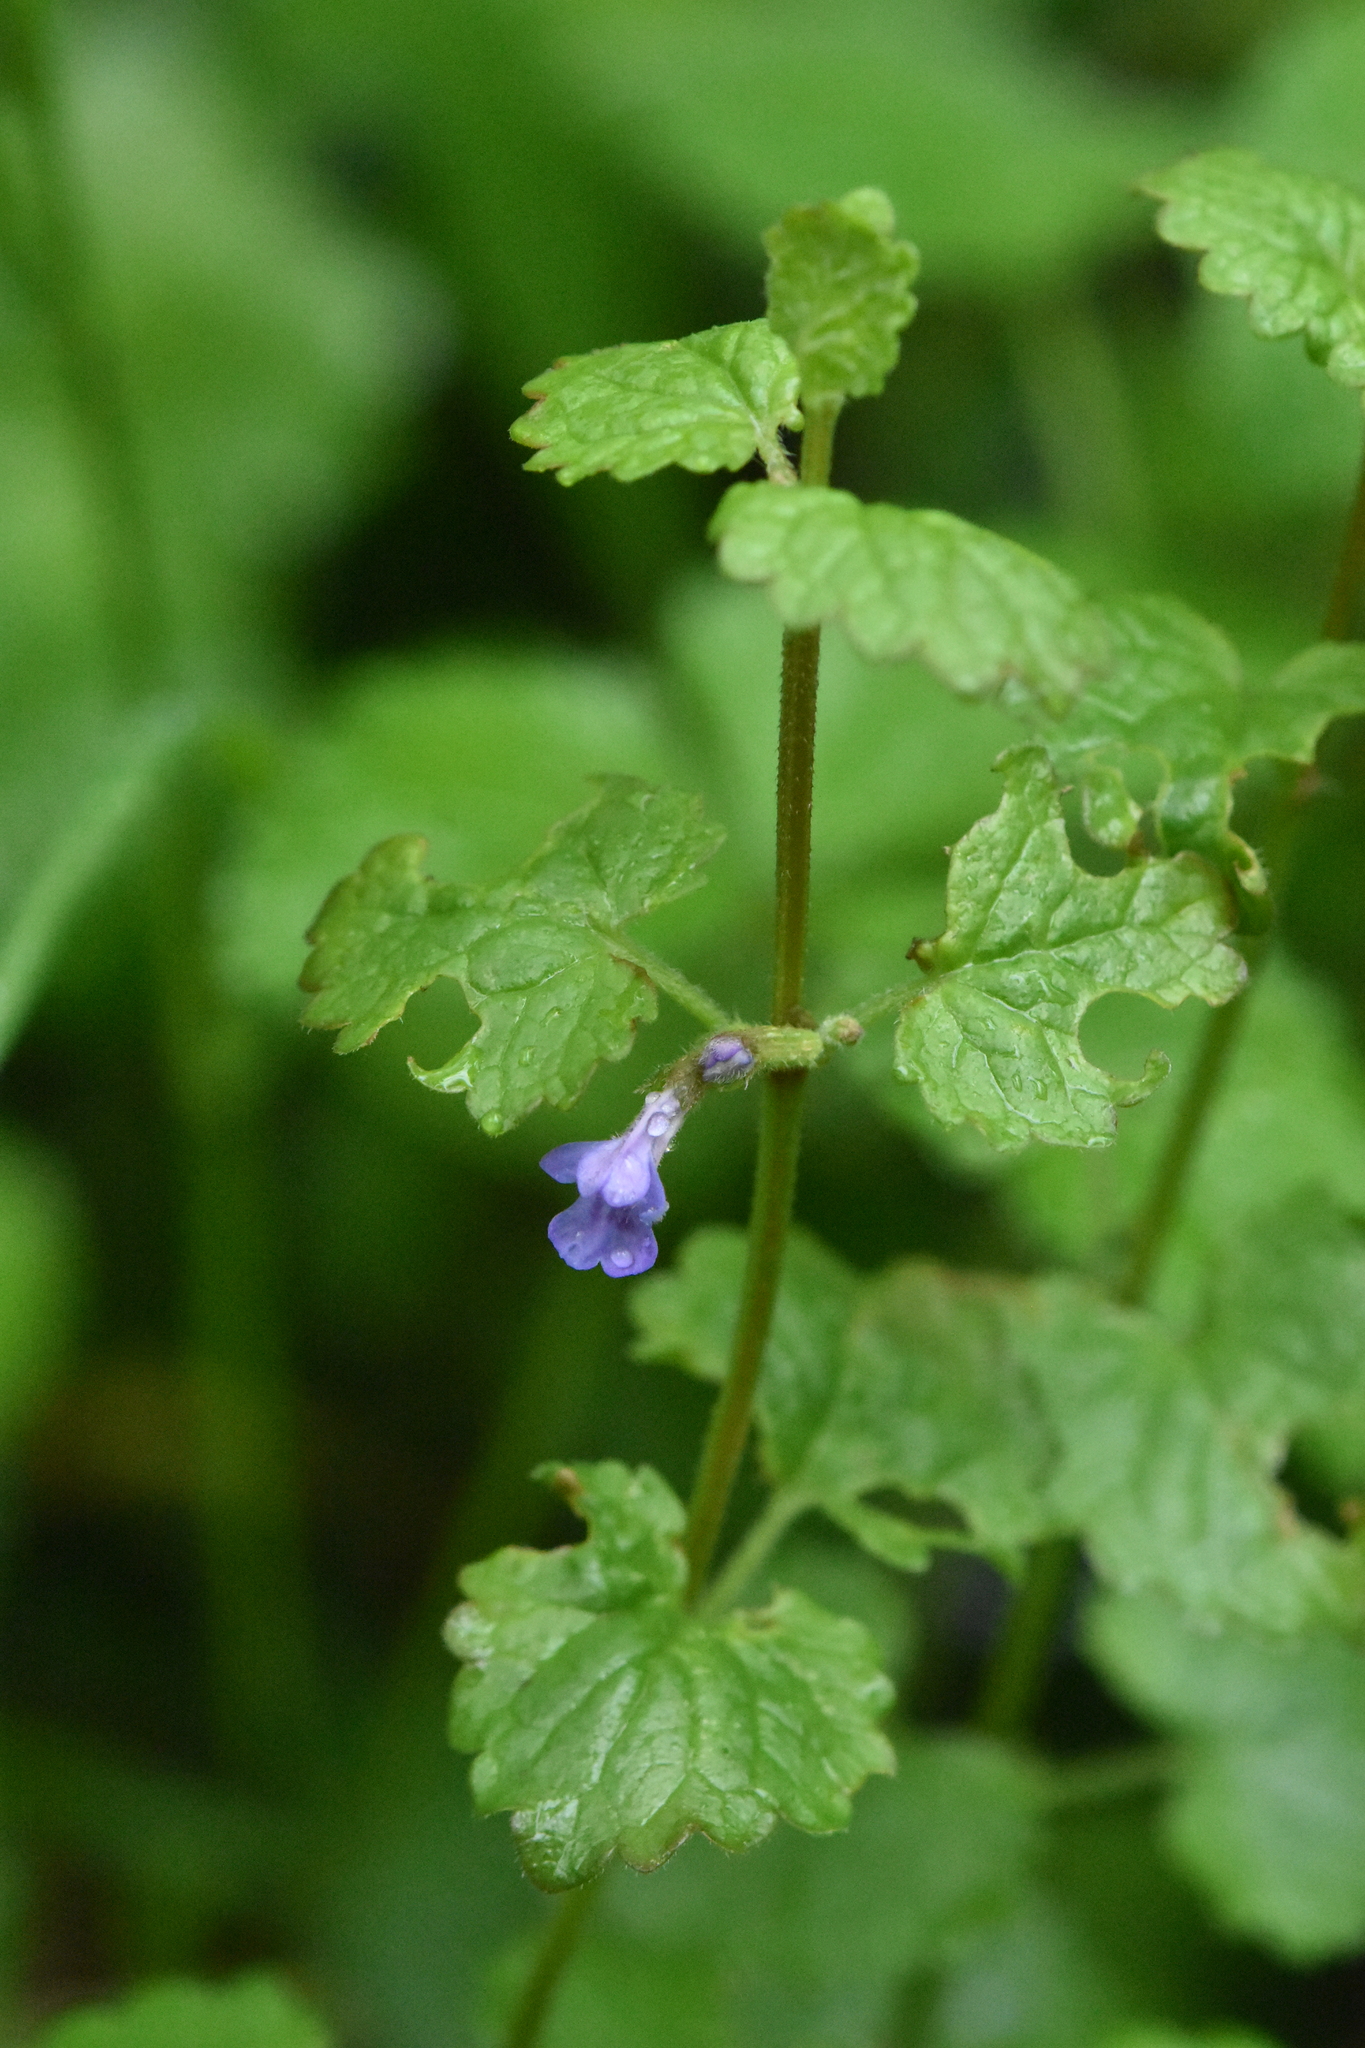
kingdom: Plantae
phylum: Tracheophyta
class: Magnoliopsida
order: Lamiales
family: Lamiaceae
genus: Glechoma
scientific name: Glechoma hederacea
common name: Ground ivy
